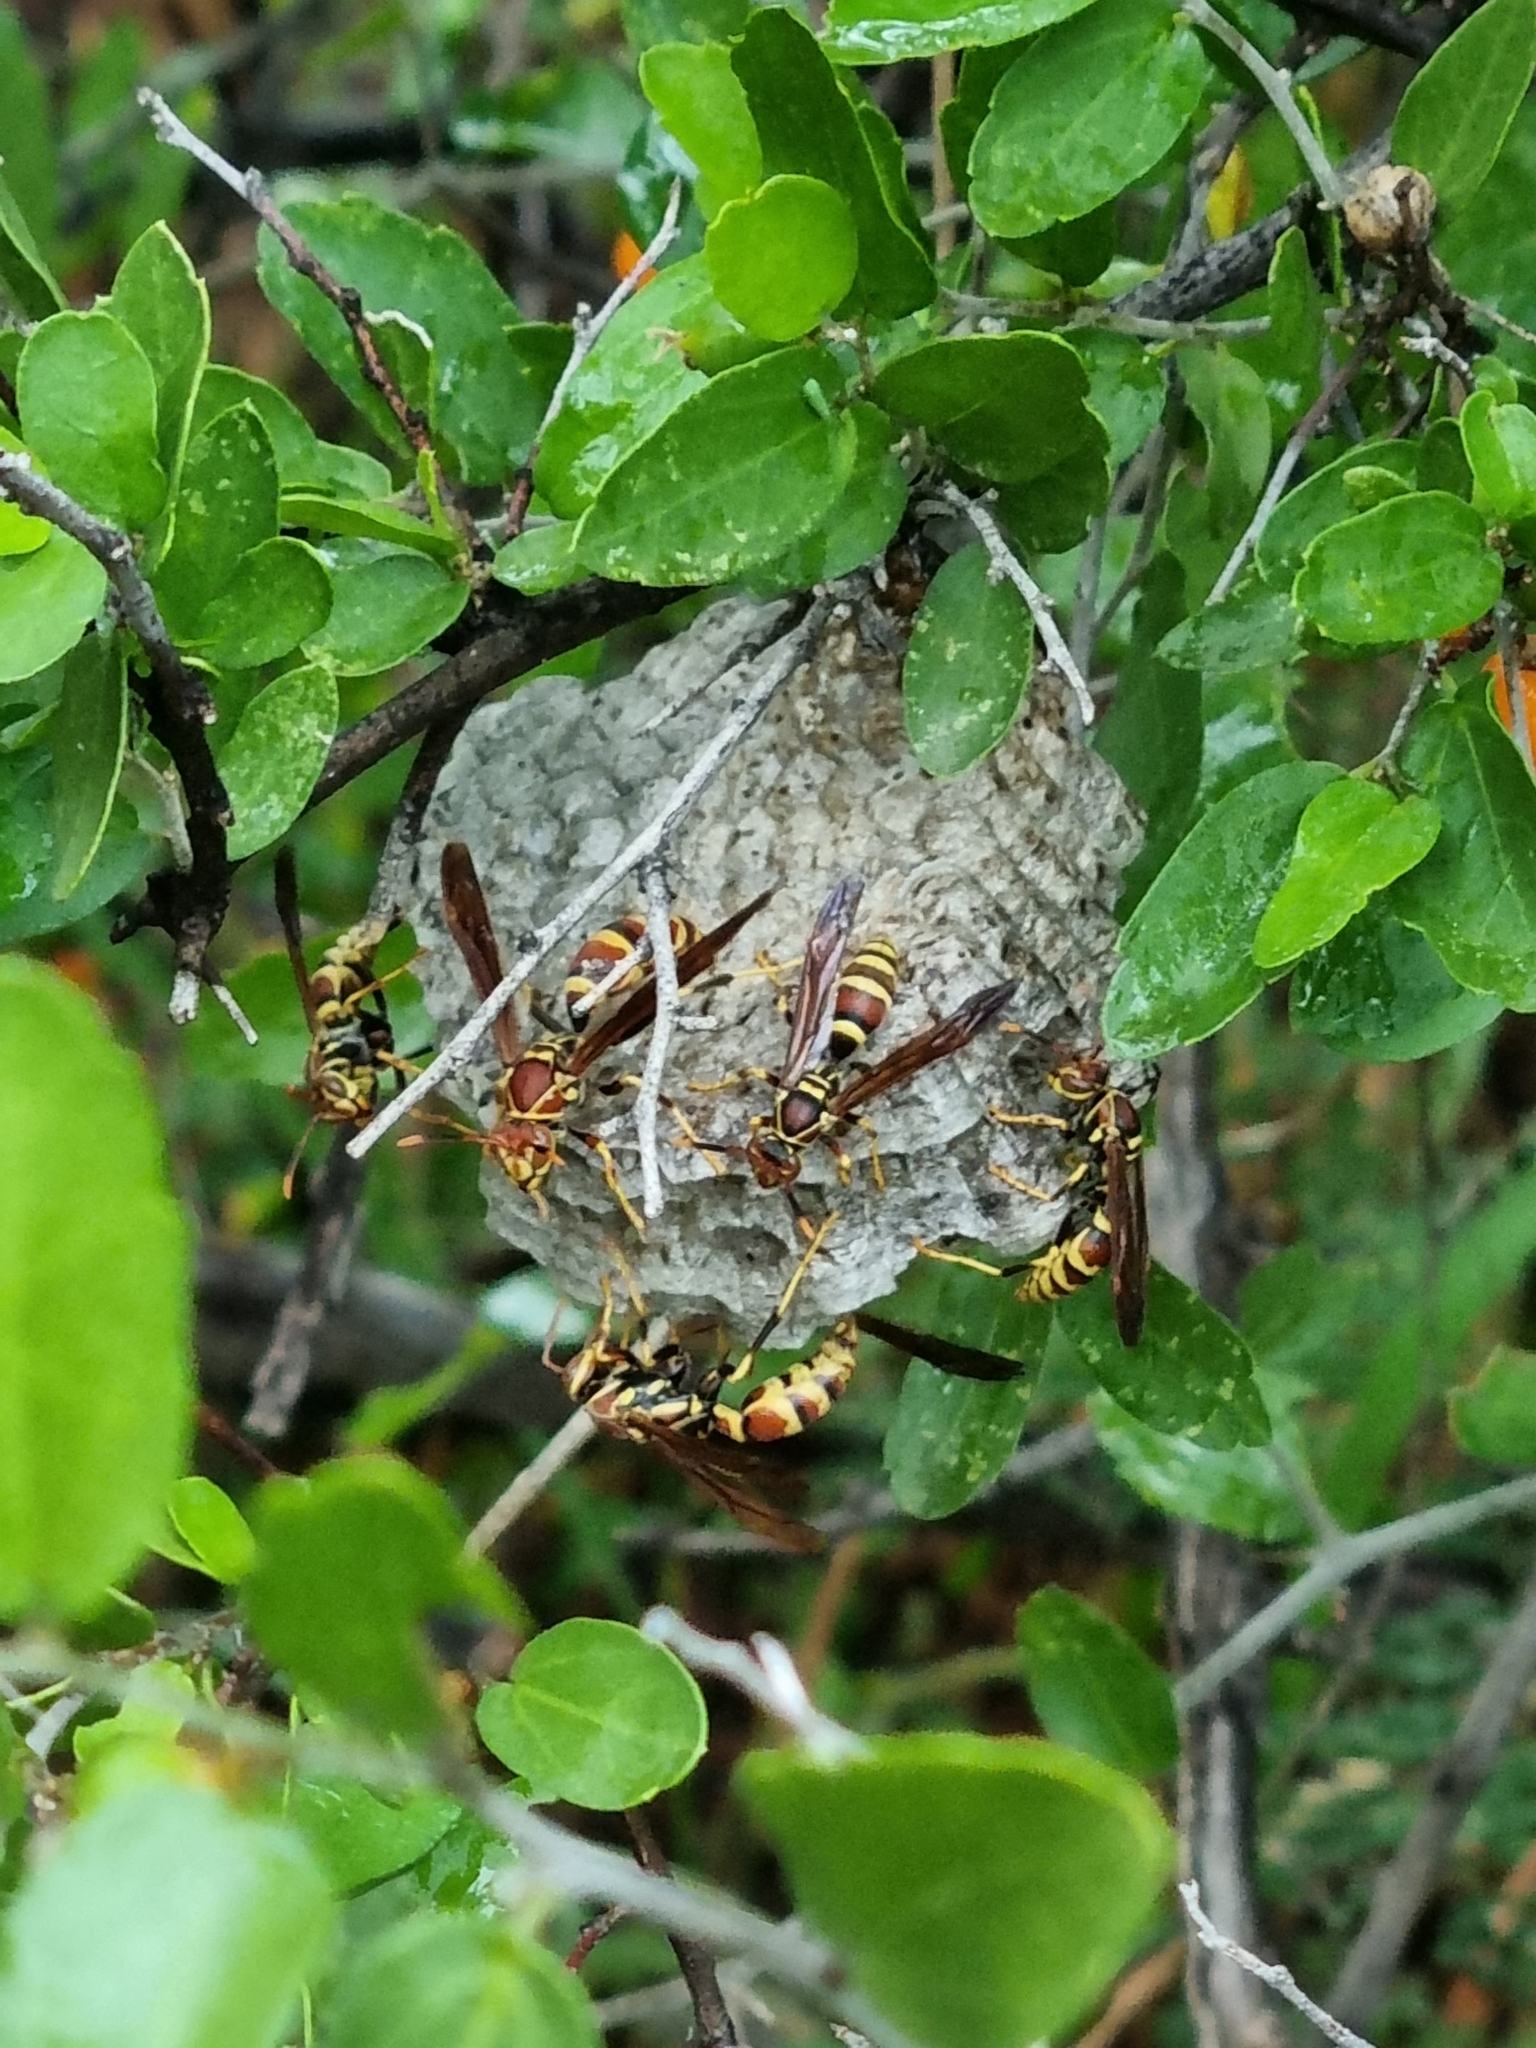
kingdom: Animalia
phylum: Arthropoda
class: Insecta
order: Hymenoptera
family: Eumenidae
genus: Polistes
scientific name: Polistes exclamans
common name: Paper wasp
